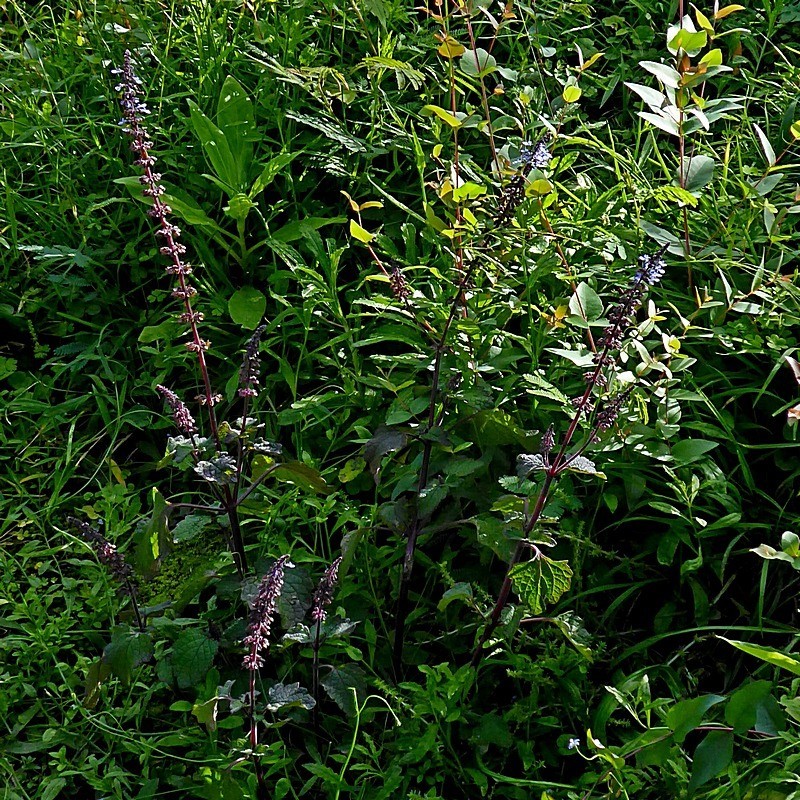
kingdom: Plantae
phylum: Tracheophyta
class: Magnoliopsida
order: Lamiales
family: Lamiaceae
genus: Coleus
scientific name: Coleus australis
